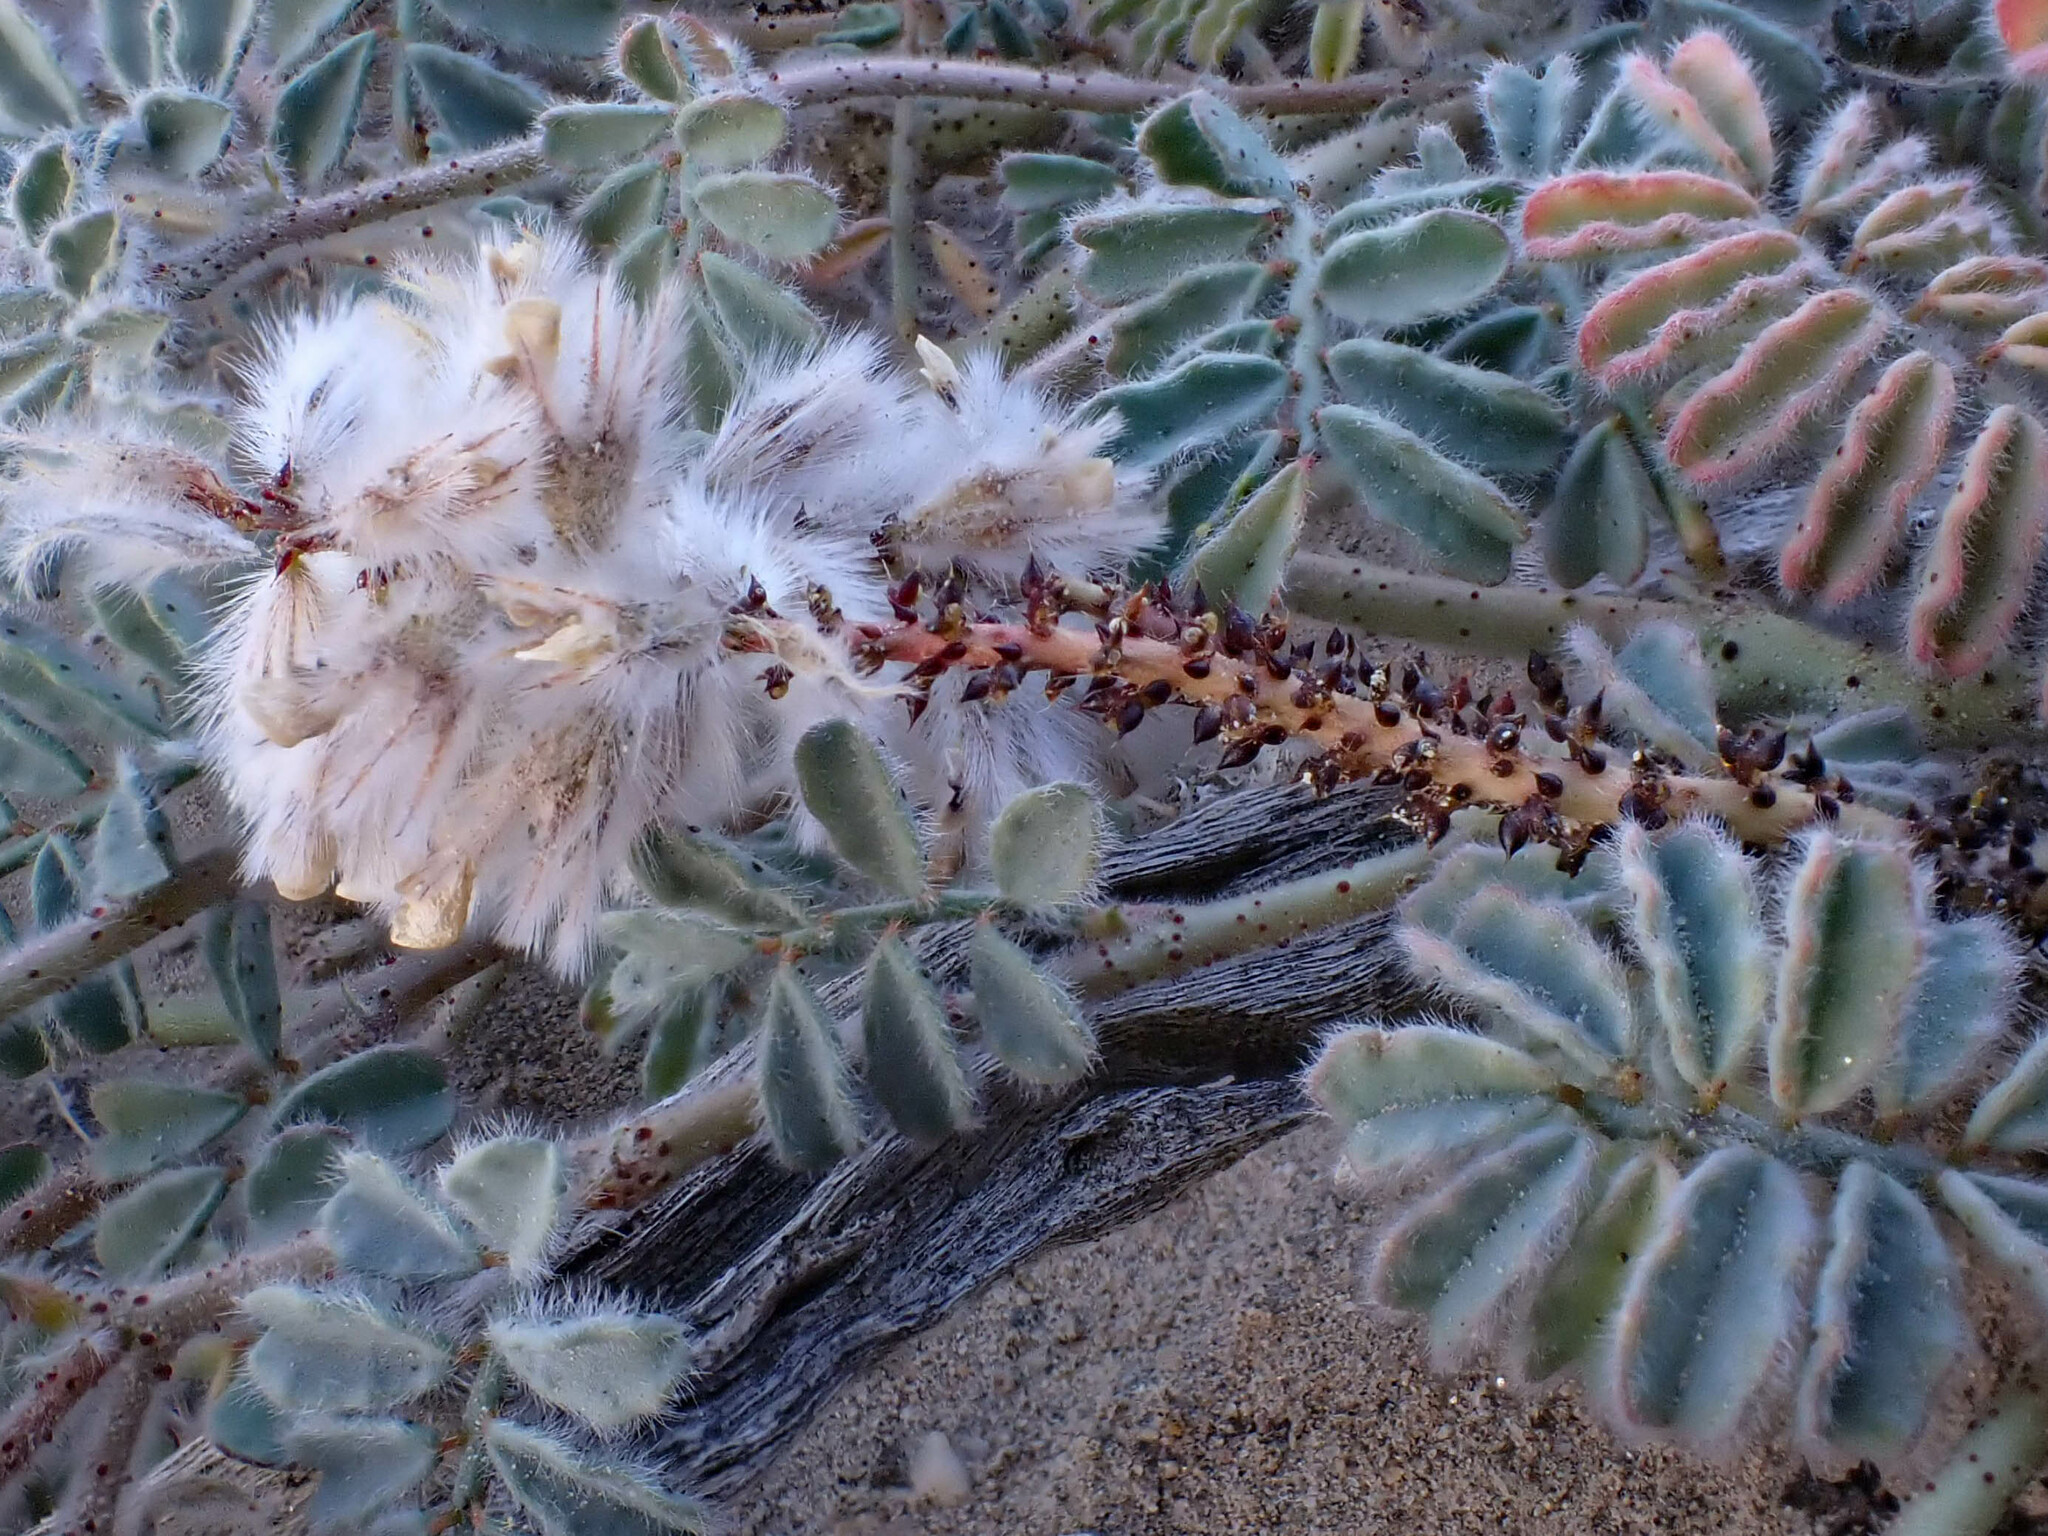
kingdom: Plantae
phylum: Tracheophyta
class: Magnoliopsida
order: Fabales
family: Fabaceae
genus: Dalea
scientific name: Dalea mollissima
